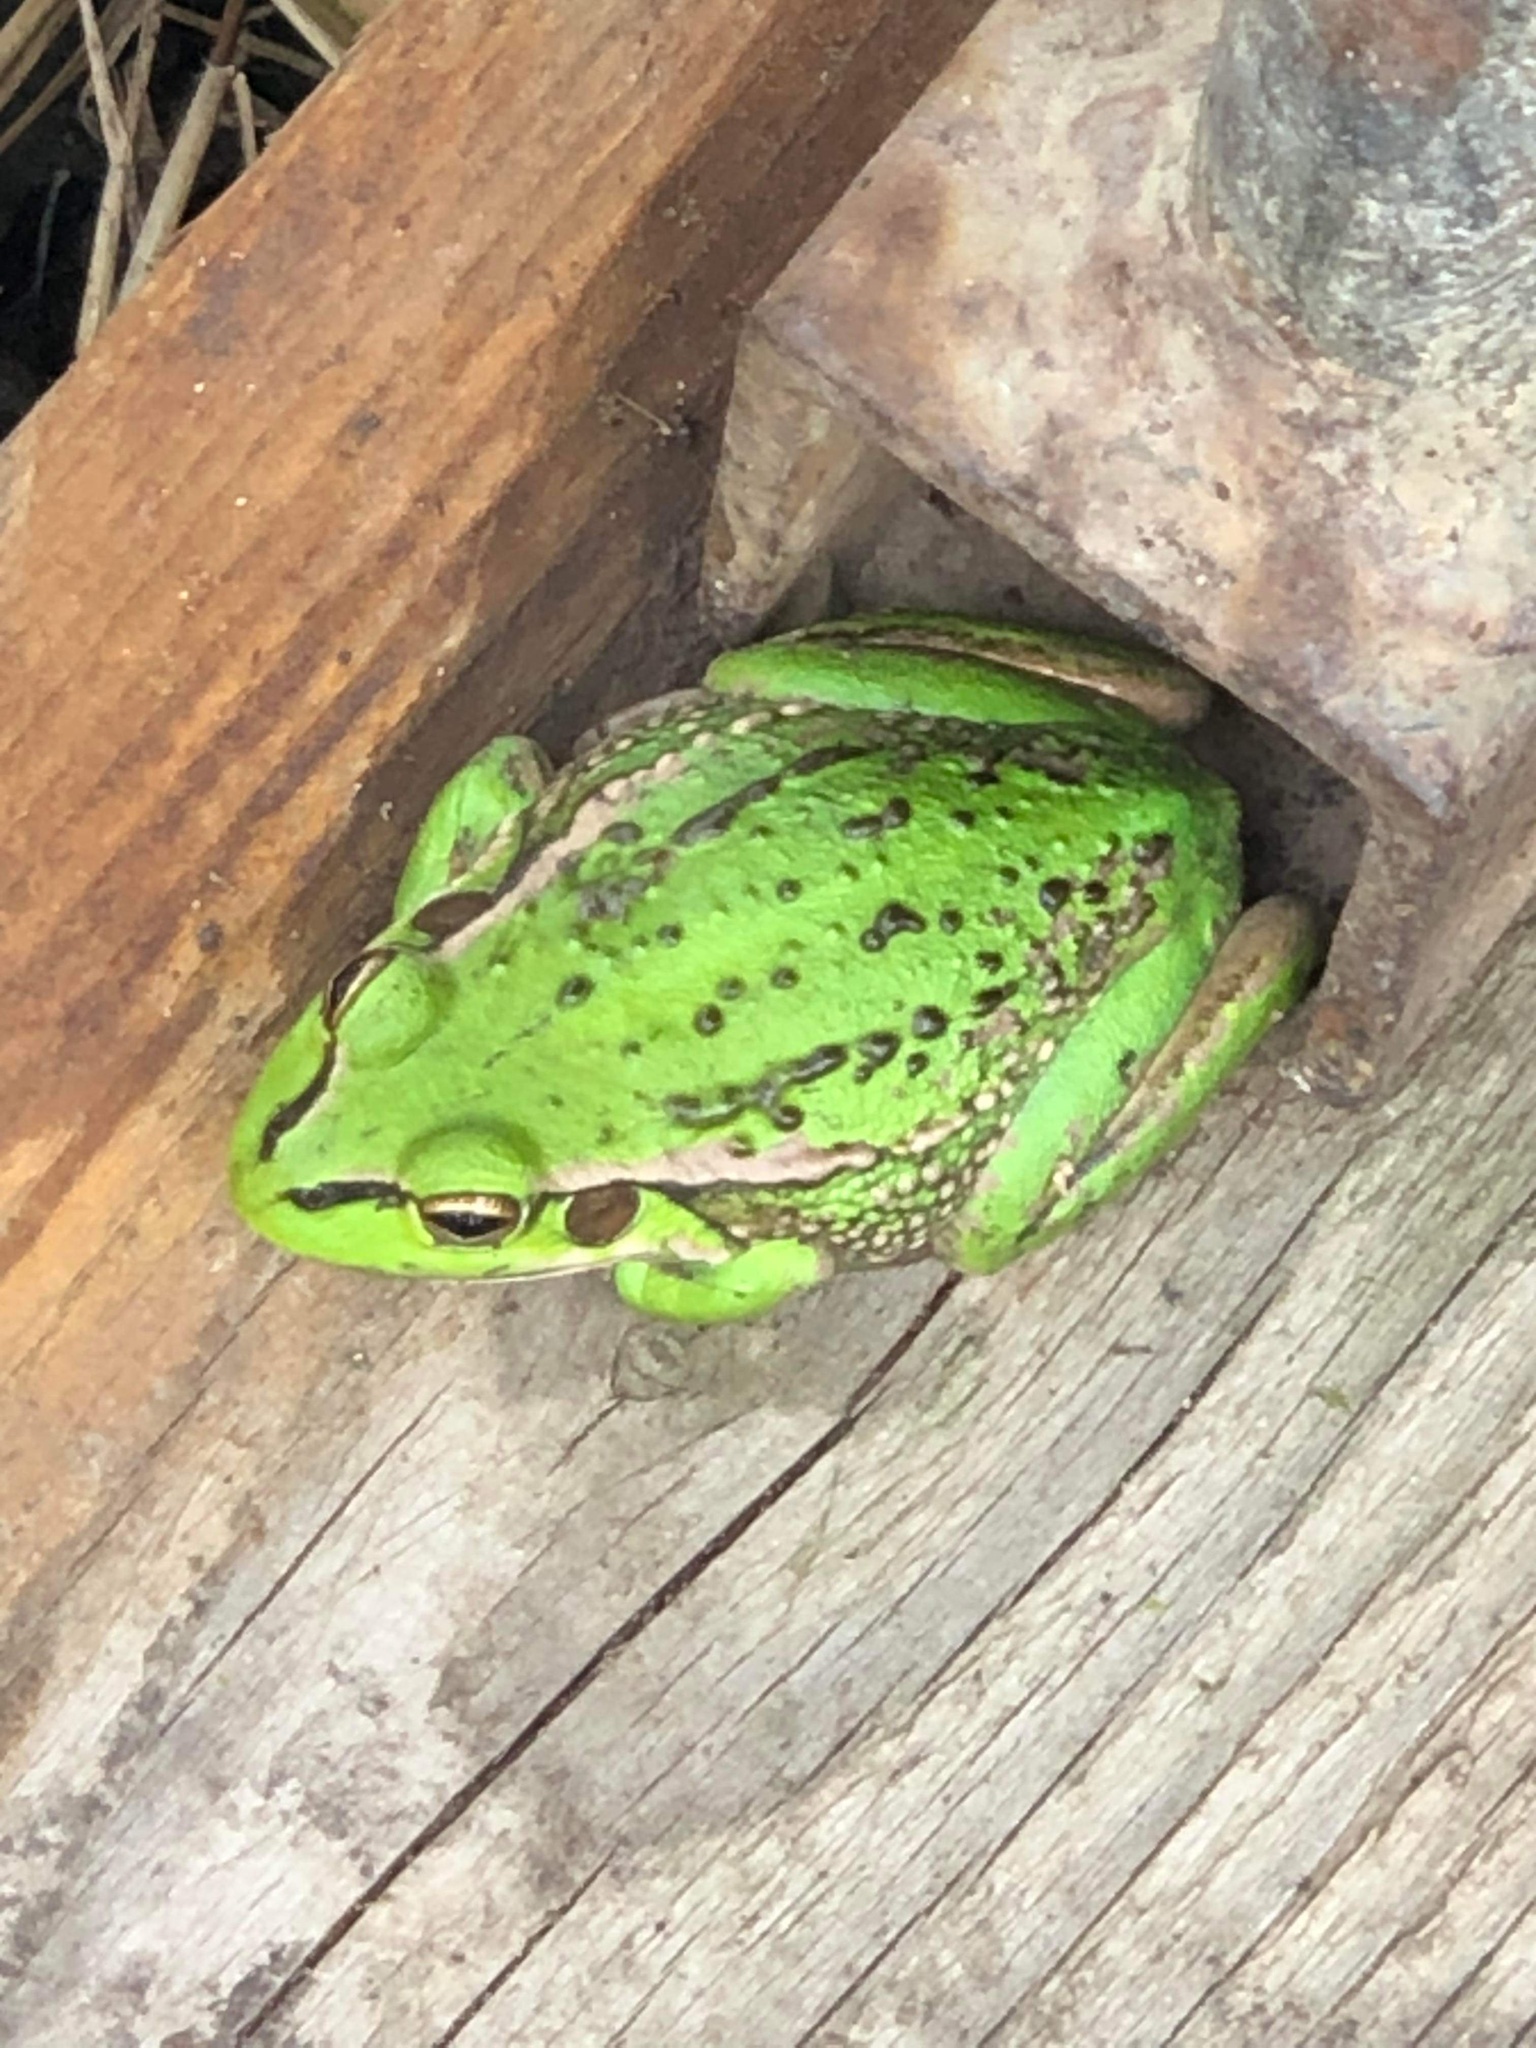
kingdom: Animalia
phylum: Chordata
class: Amphibia
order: Anura
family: Pelodryadidae
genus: Ranoidea
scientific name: Ranoidea raniformis
